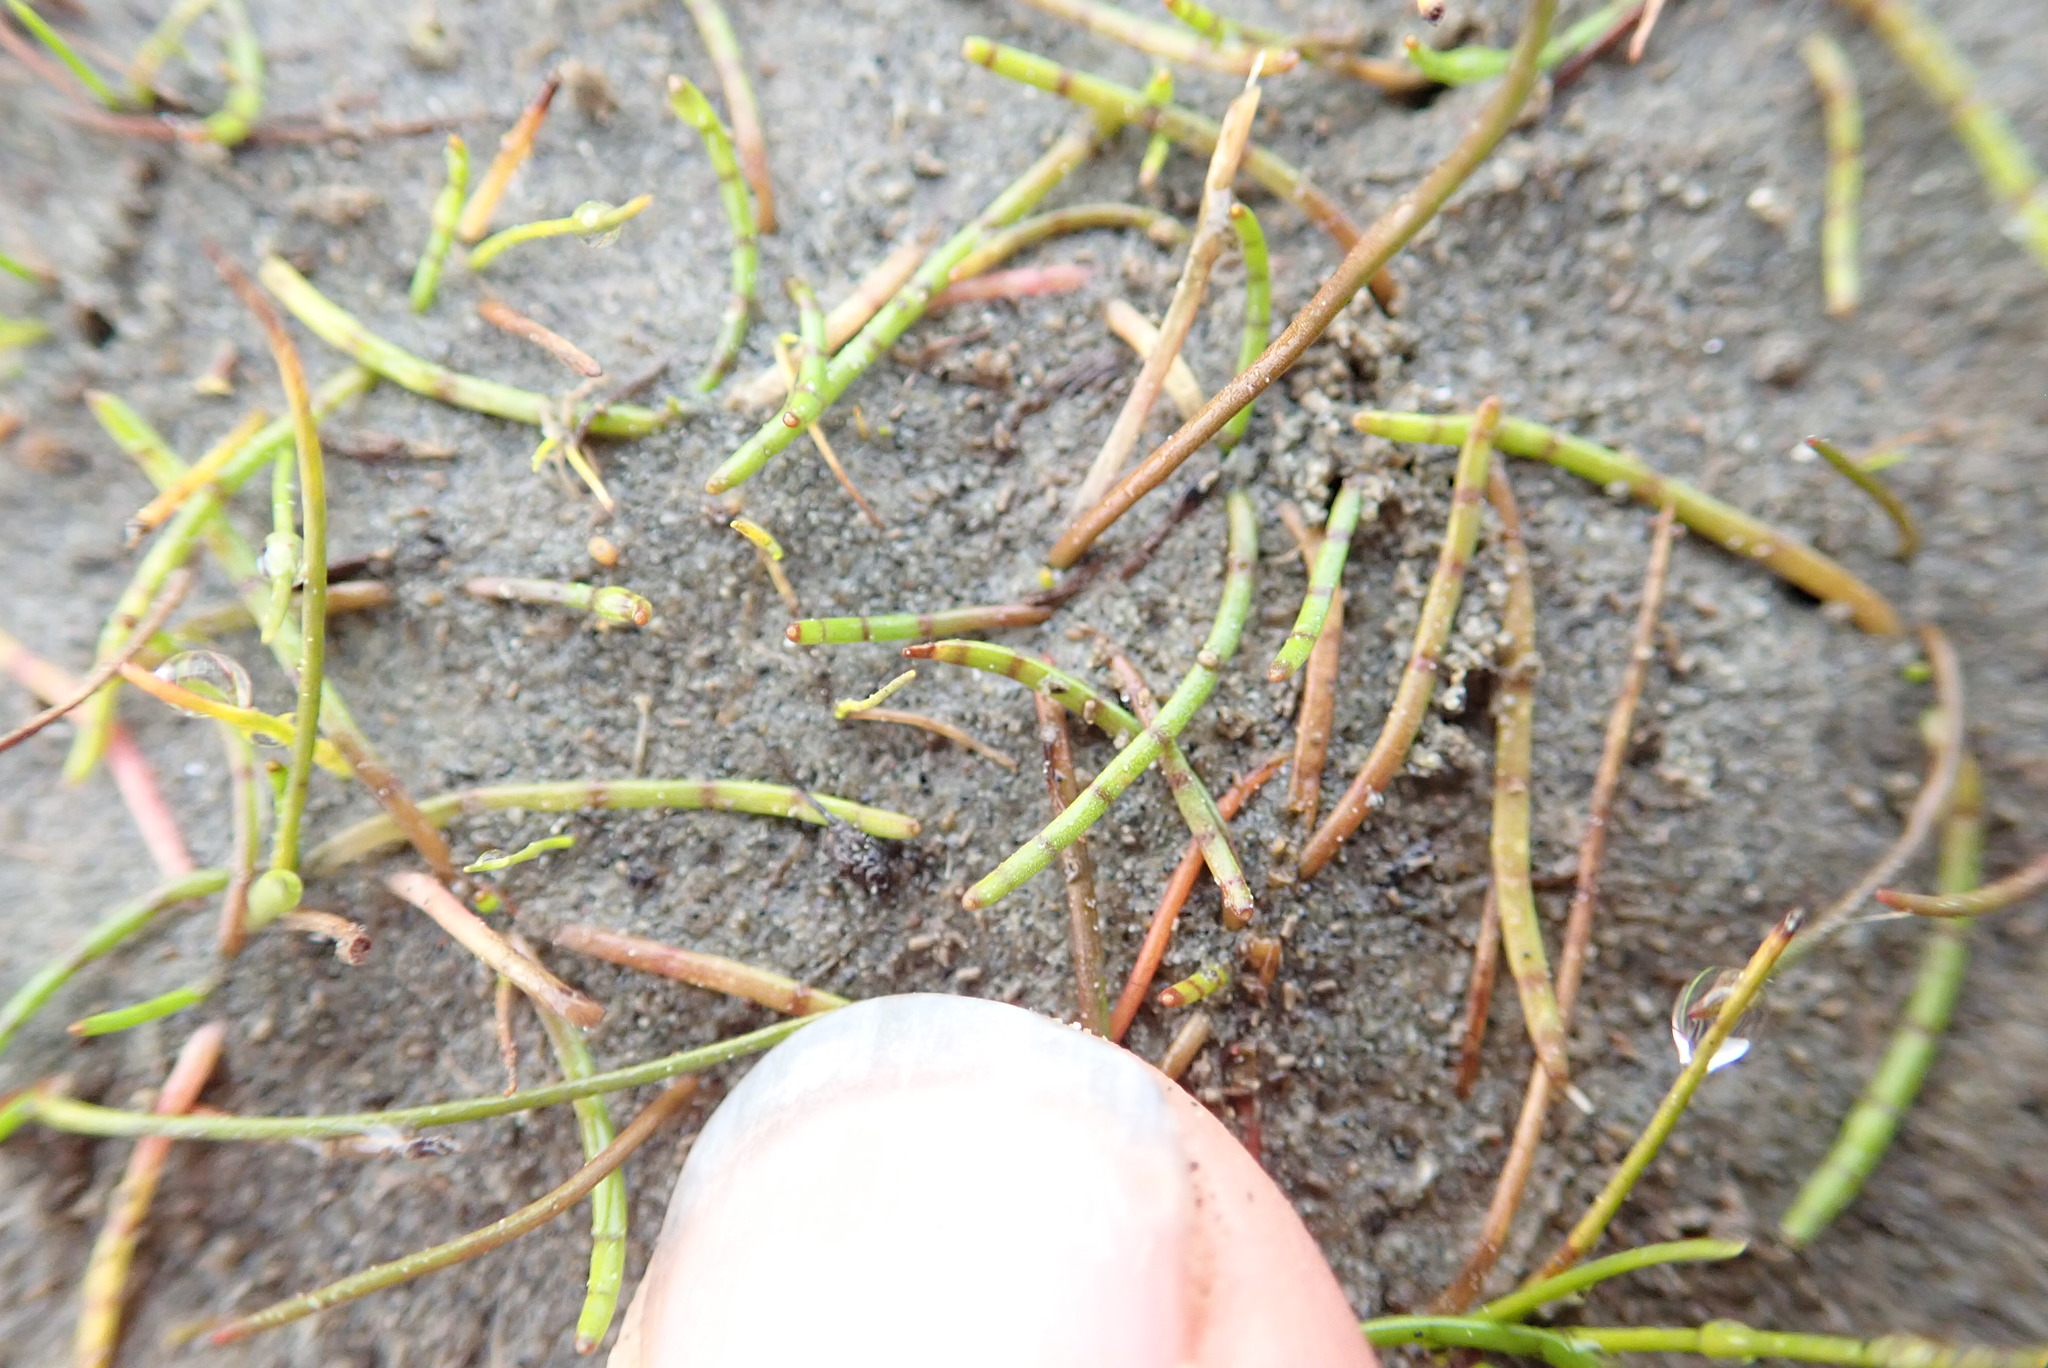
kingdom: Plantae
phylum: Tracheophyta
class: Magnoliopsida
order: Apiales
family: Apiaceae
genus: Lilaeopsis
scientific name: Lilaeopsis novae-zelandiae
